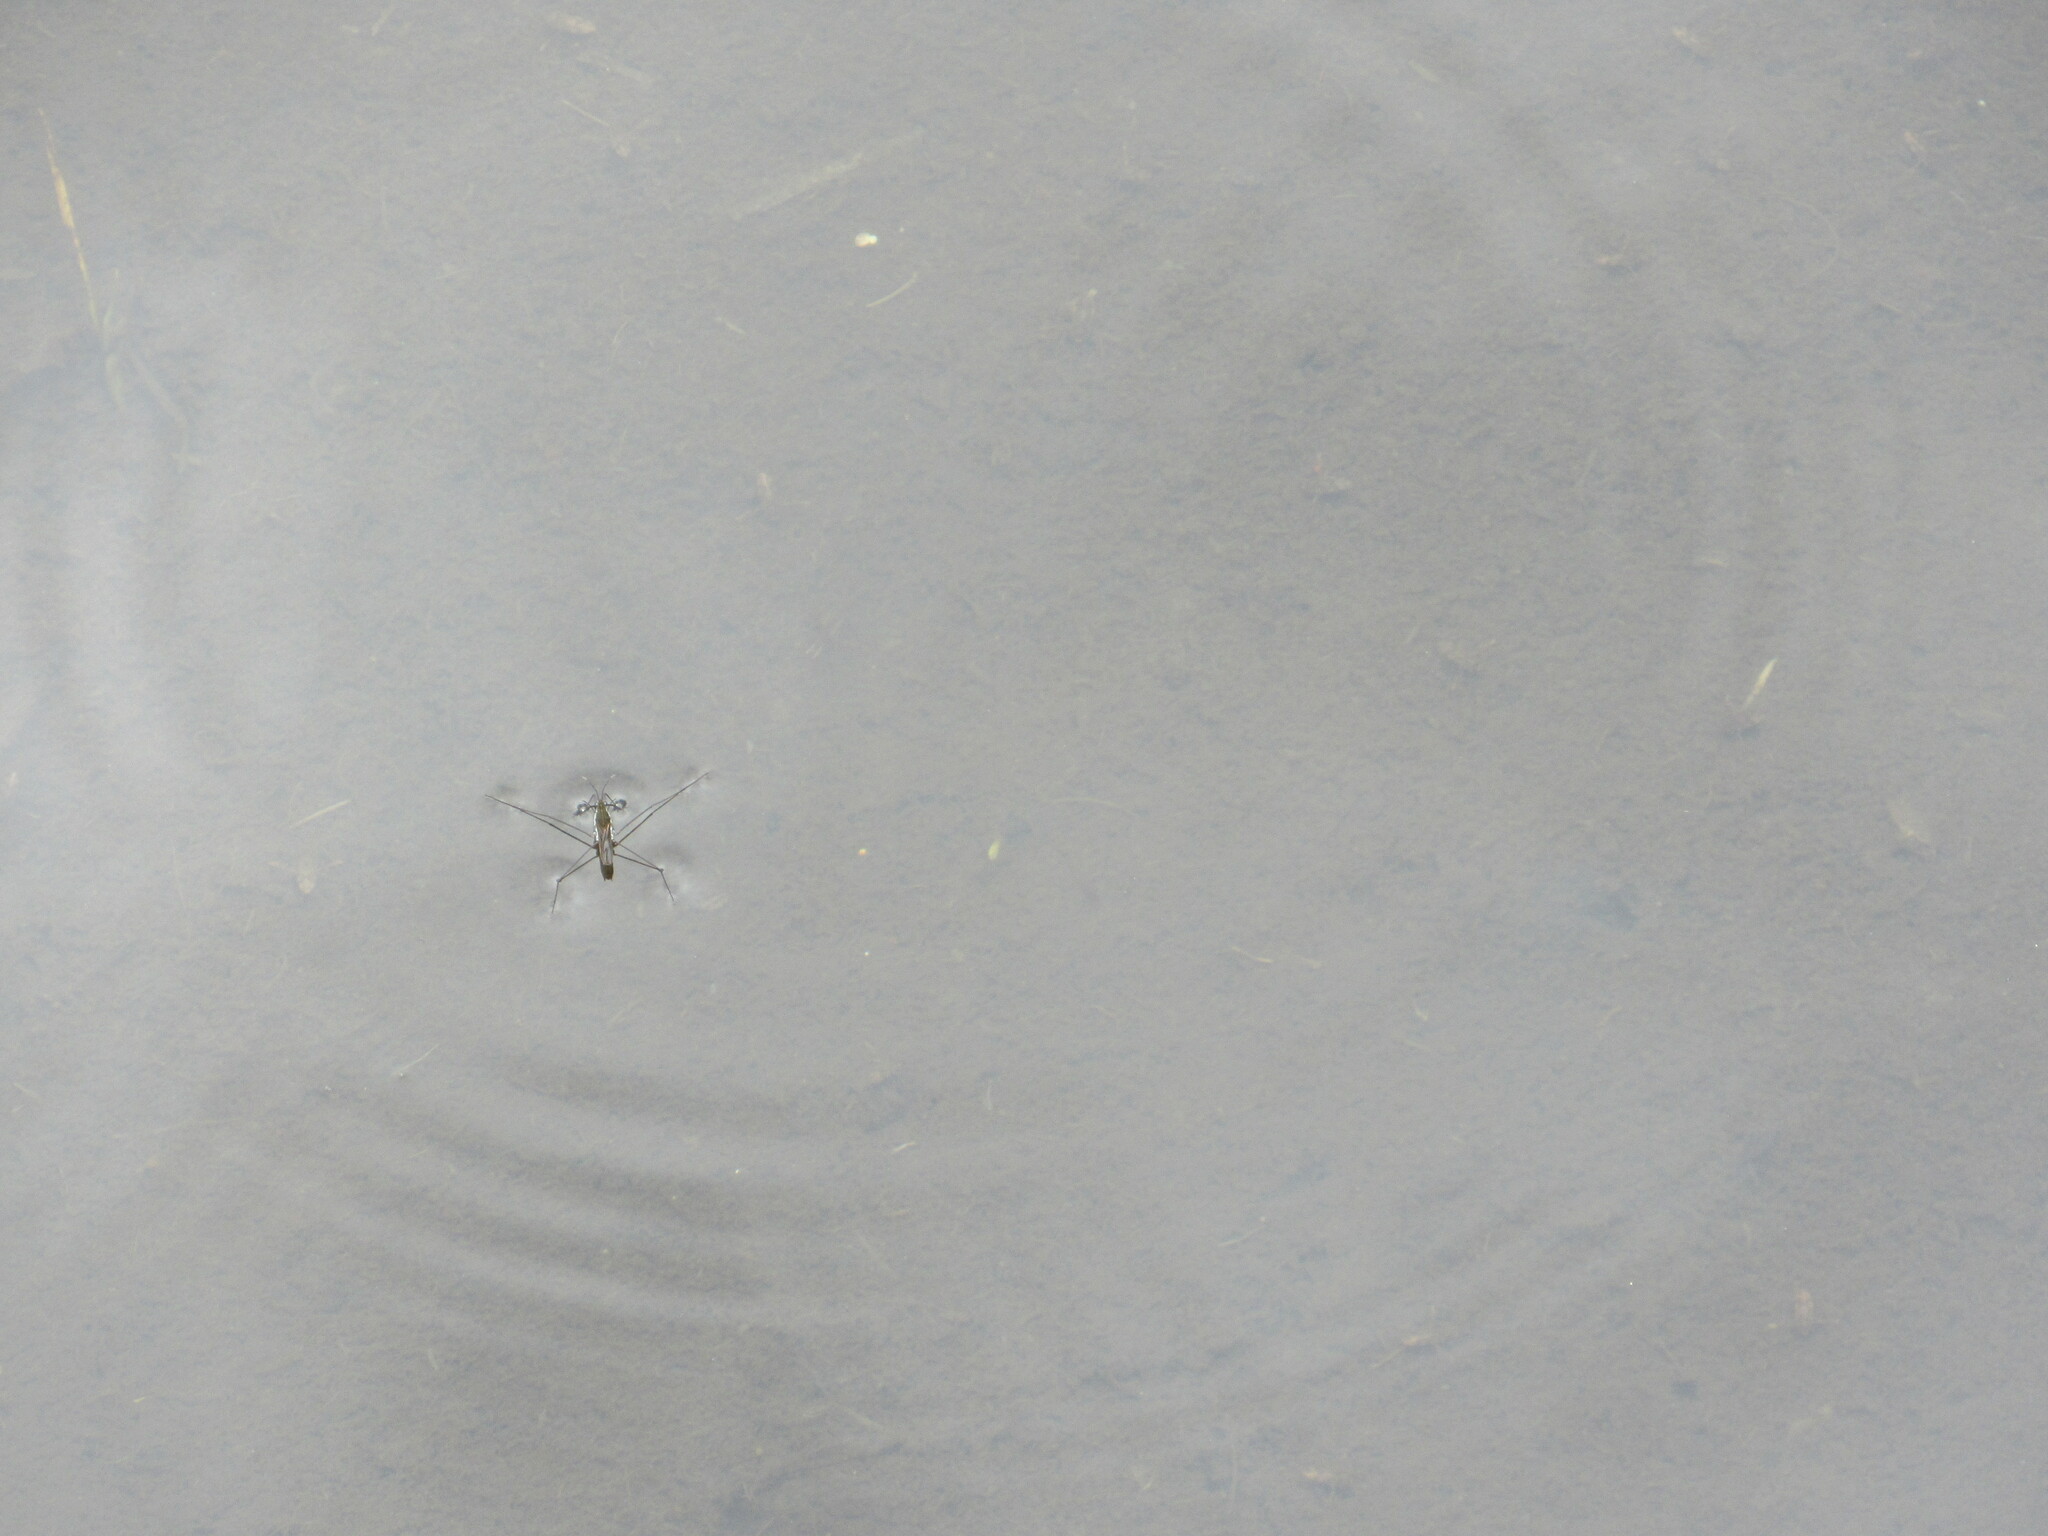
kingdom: Animalia
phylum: Arthropoda
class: Insecta
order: Hemiptera
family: Gerridae
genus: Gerris
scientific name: Gerris swakopensis
